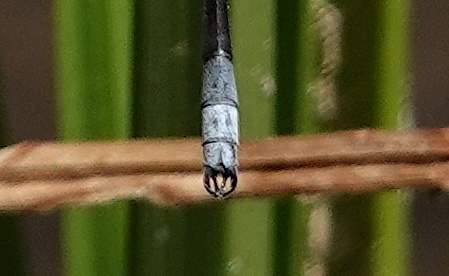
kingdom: Animalia
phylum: Arthropoda
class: Insecta
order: Odonata
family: Lestidae
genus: Lestes
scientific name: Lestes disjunctus
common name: Northern spreadwing
